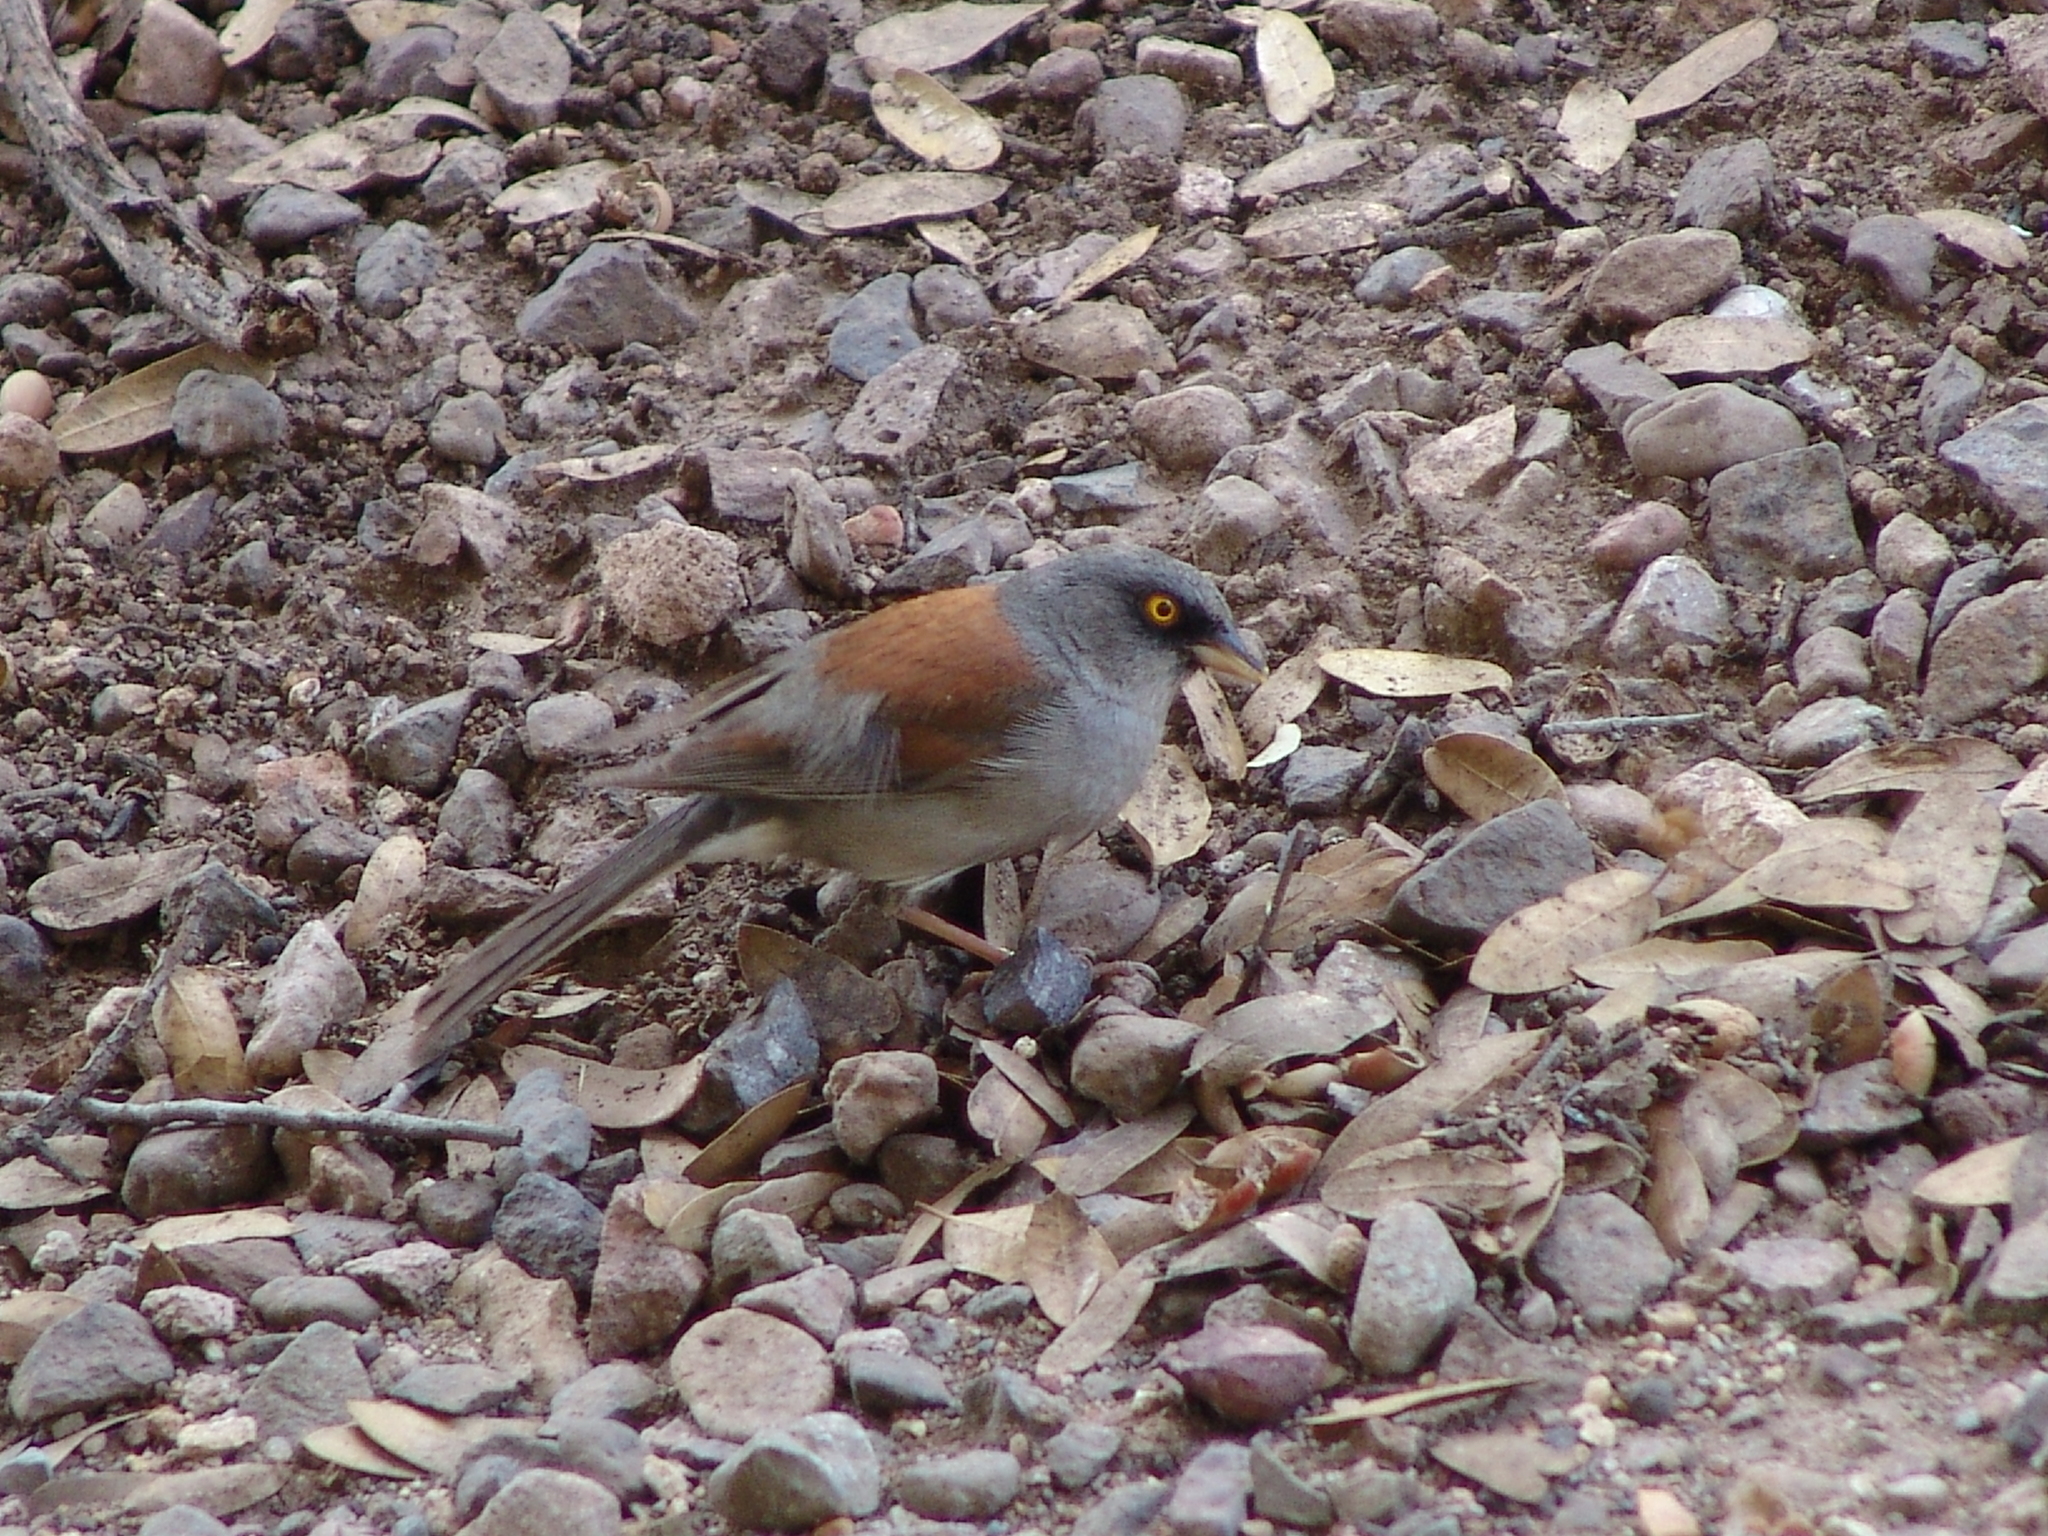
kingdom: Animalia
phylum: Chordata
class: Aves
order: Passeriformes
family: Passerellidae
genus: Junco
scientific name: Junco phaeonotus
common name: Yellow-eyed junco
